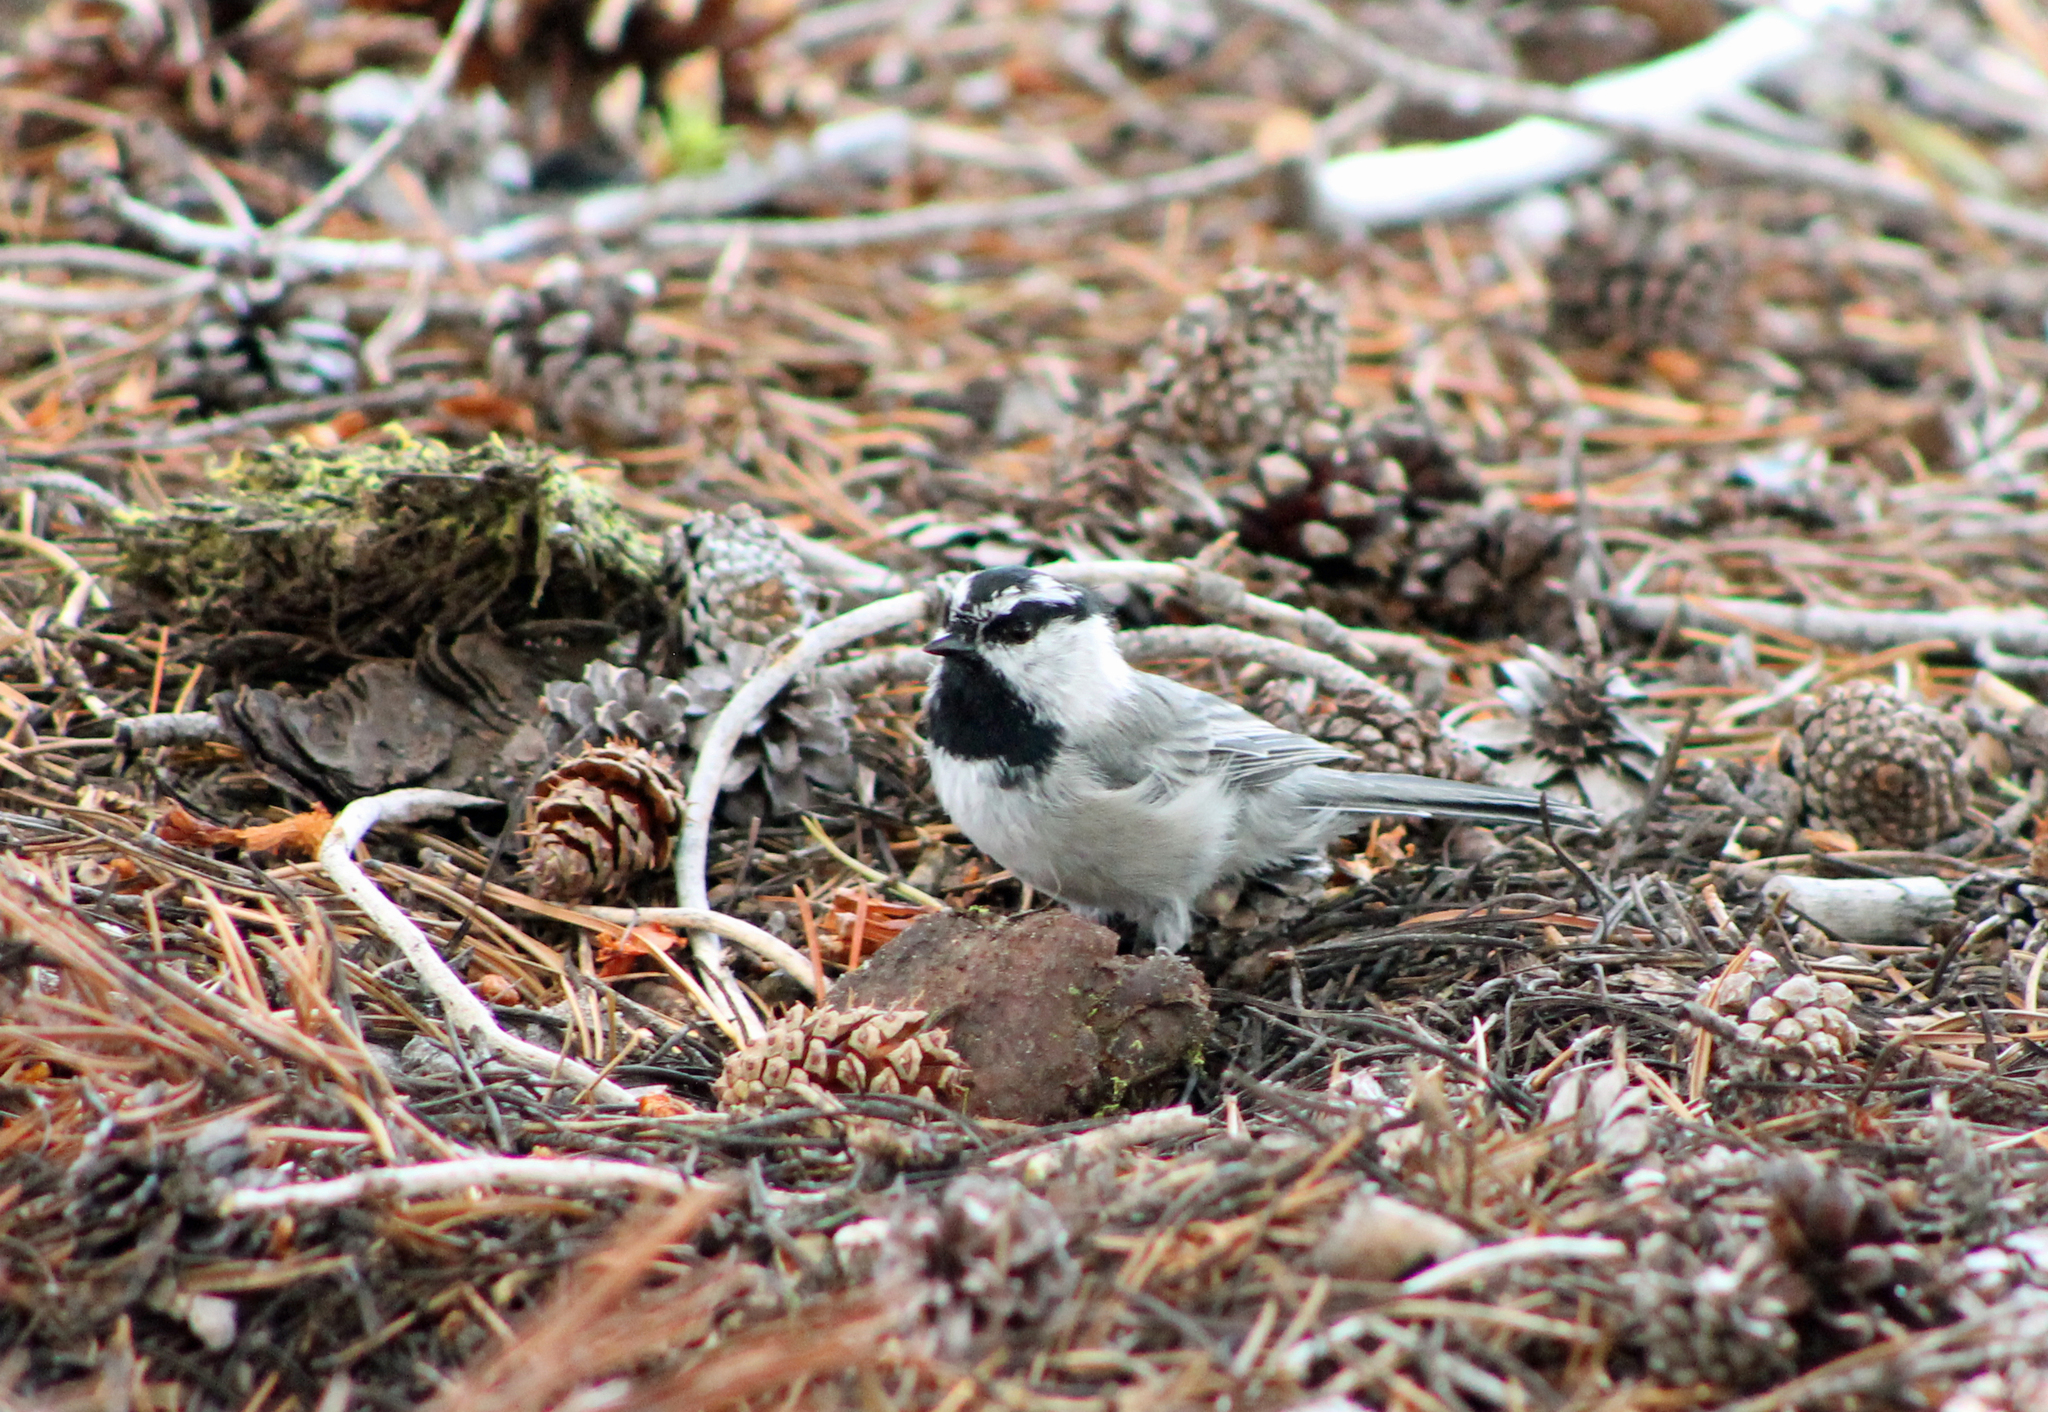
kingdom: Animalia
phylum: Chordata
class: Aves
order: Passeriformes
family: Paridae
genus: Poecile
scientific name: Poecile gambeli
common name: Mountain chickadee
